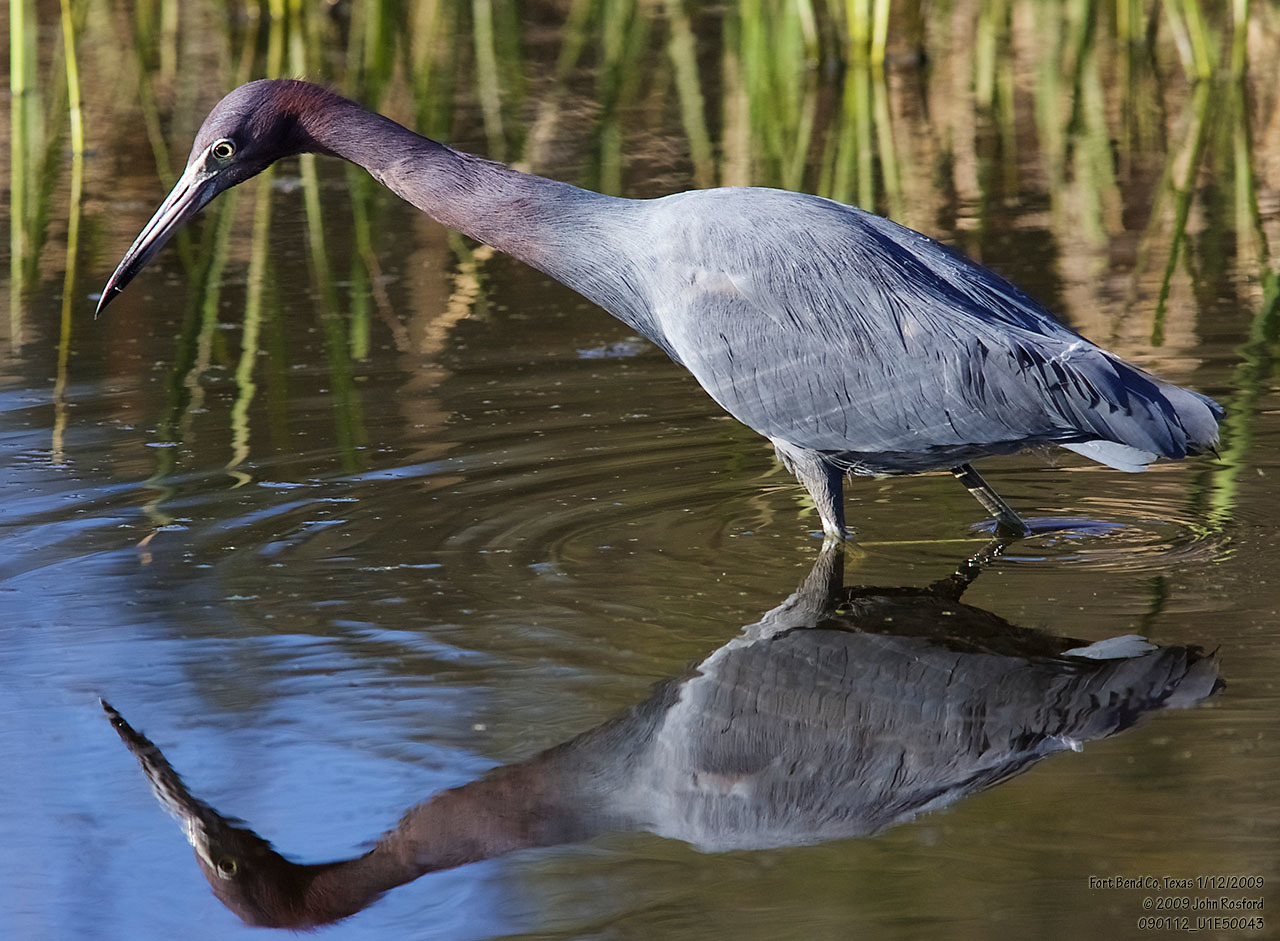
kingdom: Animalia
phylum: Chordata
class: Aves
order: Pelecaniformes
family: Ardeidae
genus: Egretta
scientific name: Egretta caerulea
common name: Little blue heron
